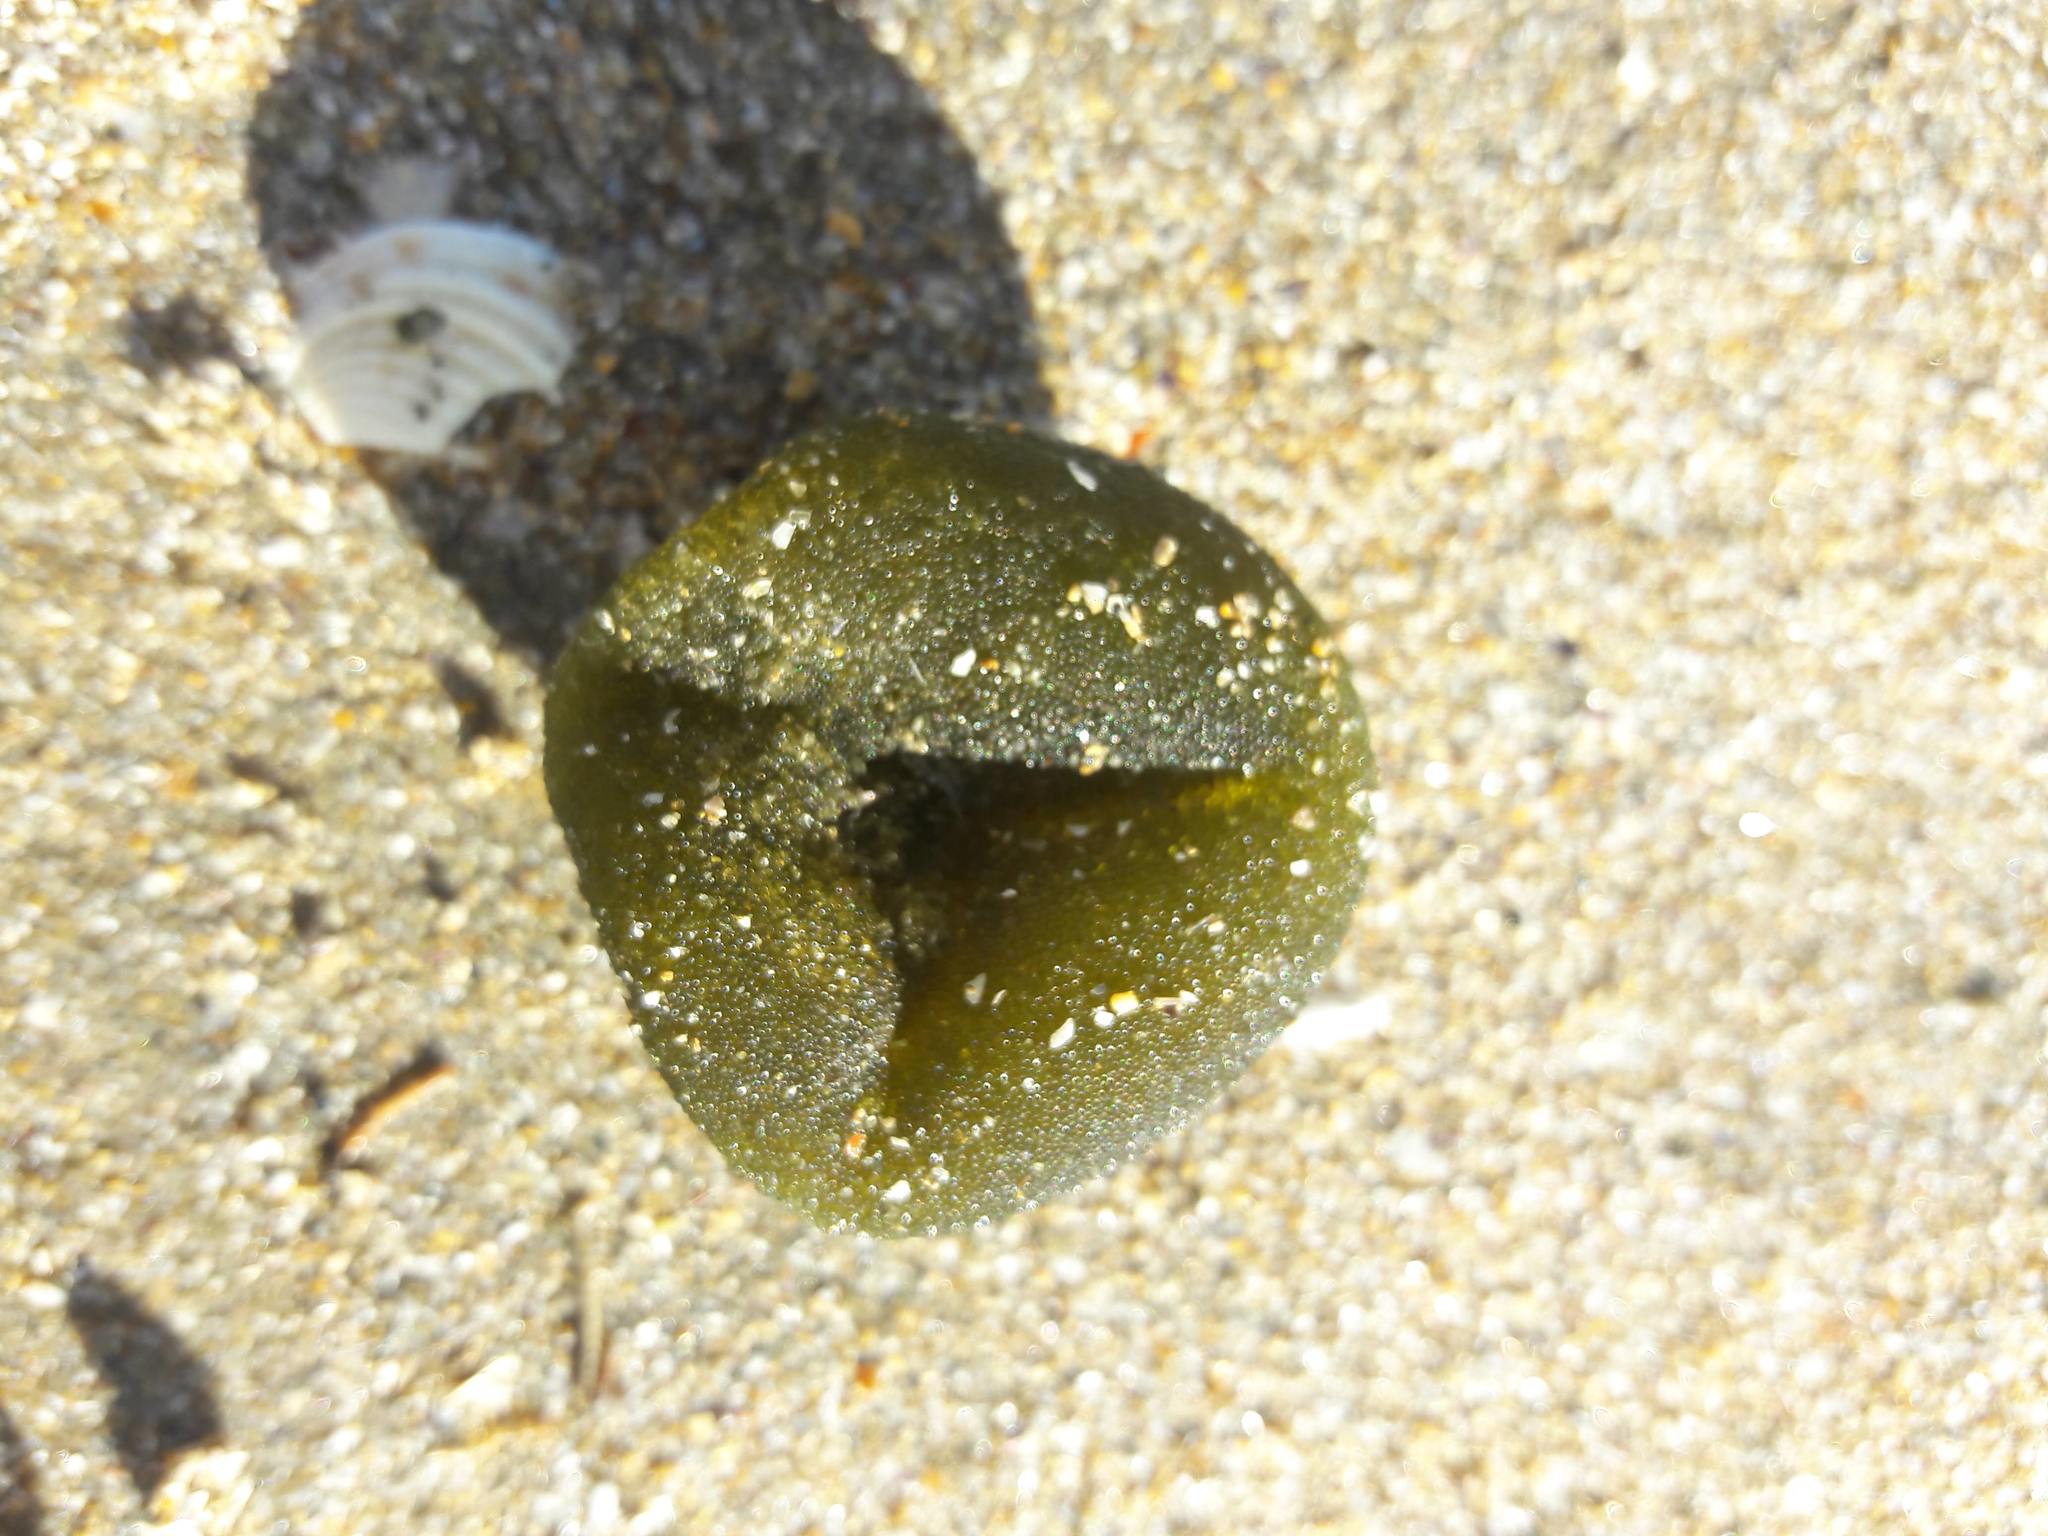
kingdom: Plantae
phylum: Chlorophyta
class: Ulvophyceae
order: Bryopsidales
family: Codiaceae
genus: Codium
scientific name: Codium bursa
